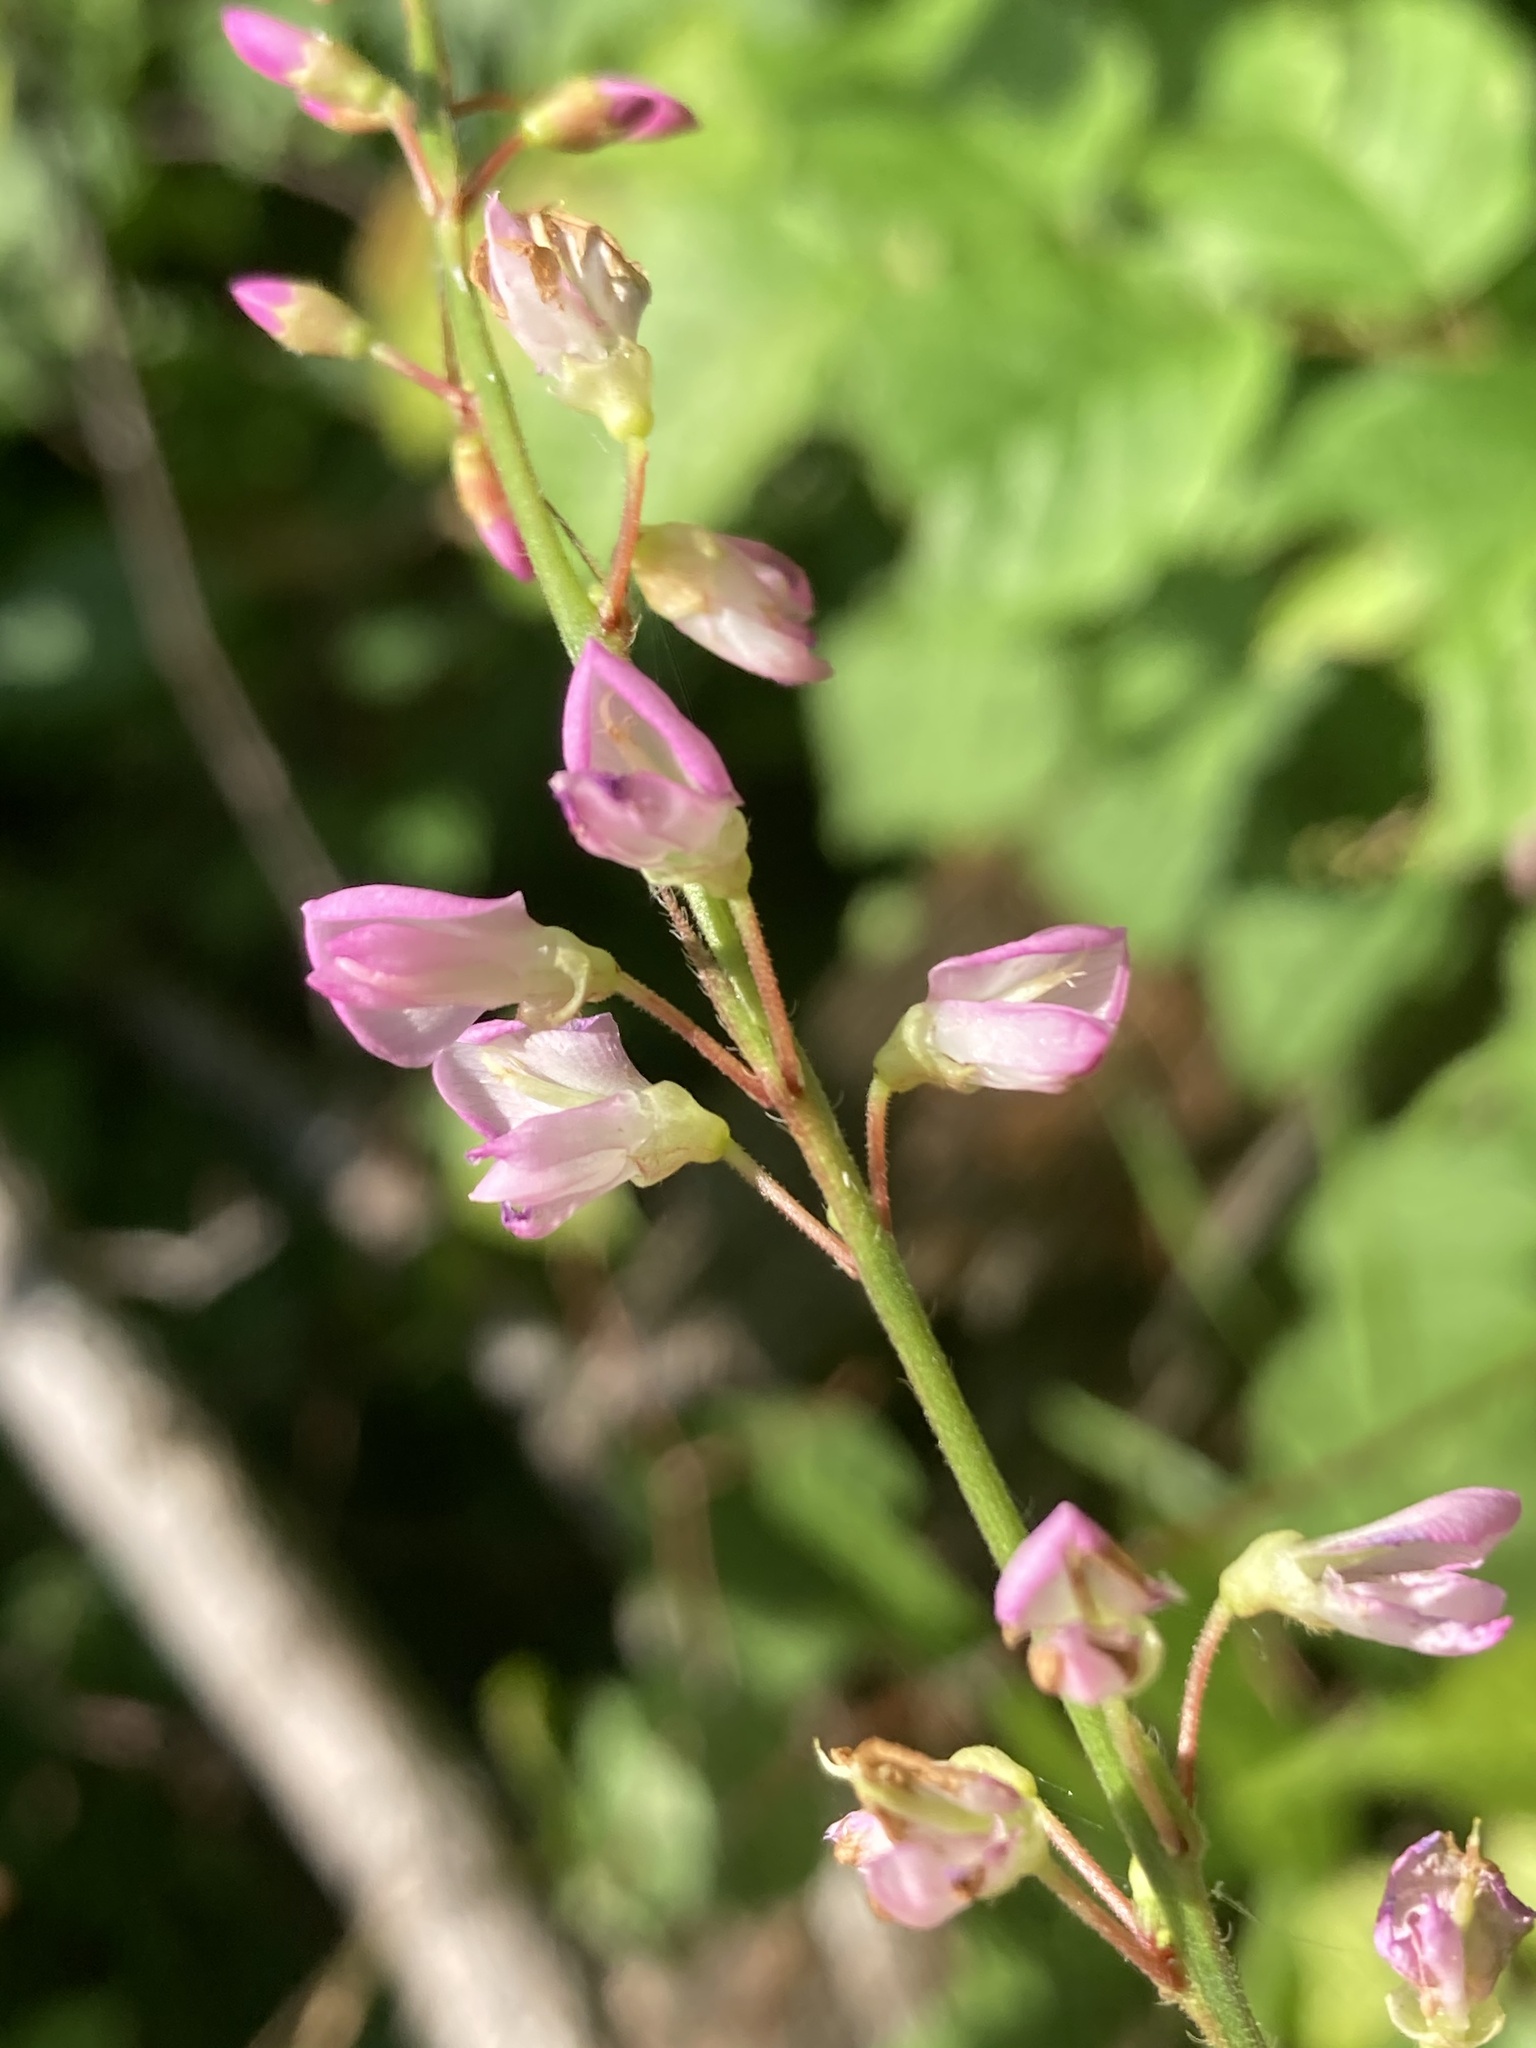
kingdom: Plantae
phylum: Tracheophyta
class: Magnoliopsida
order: Fabales
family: Fabaceae
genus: Hylodesmum
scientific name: Hylodesmum glutinosum
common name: Clustered-leaved tick-trefoil
